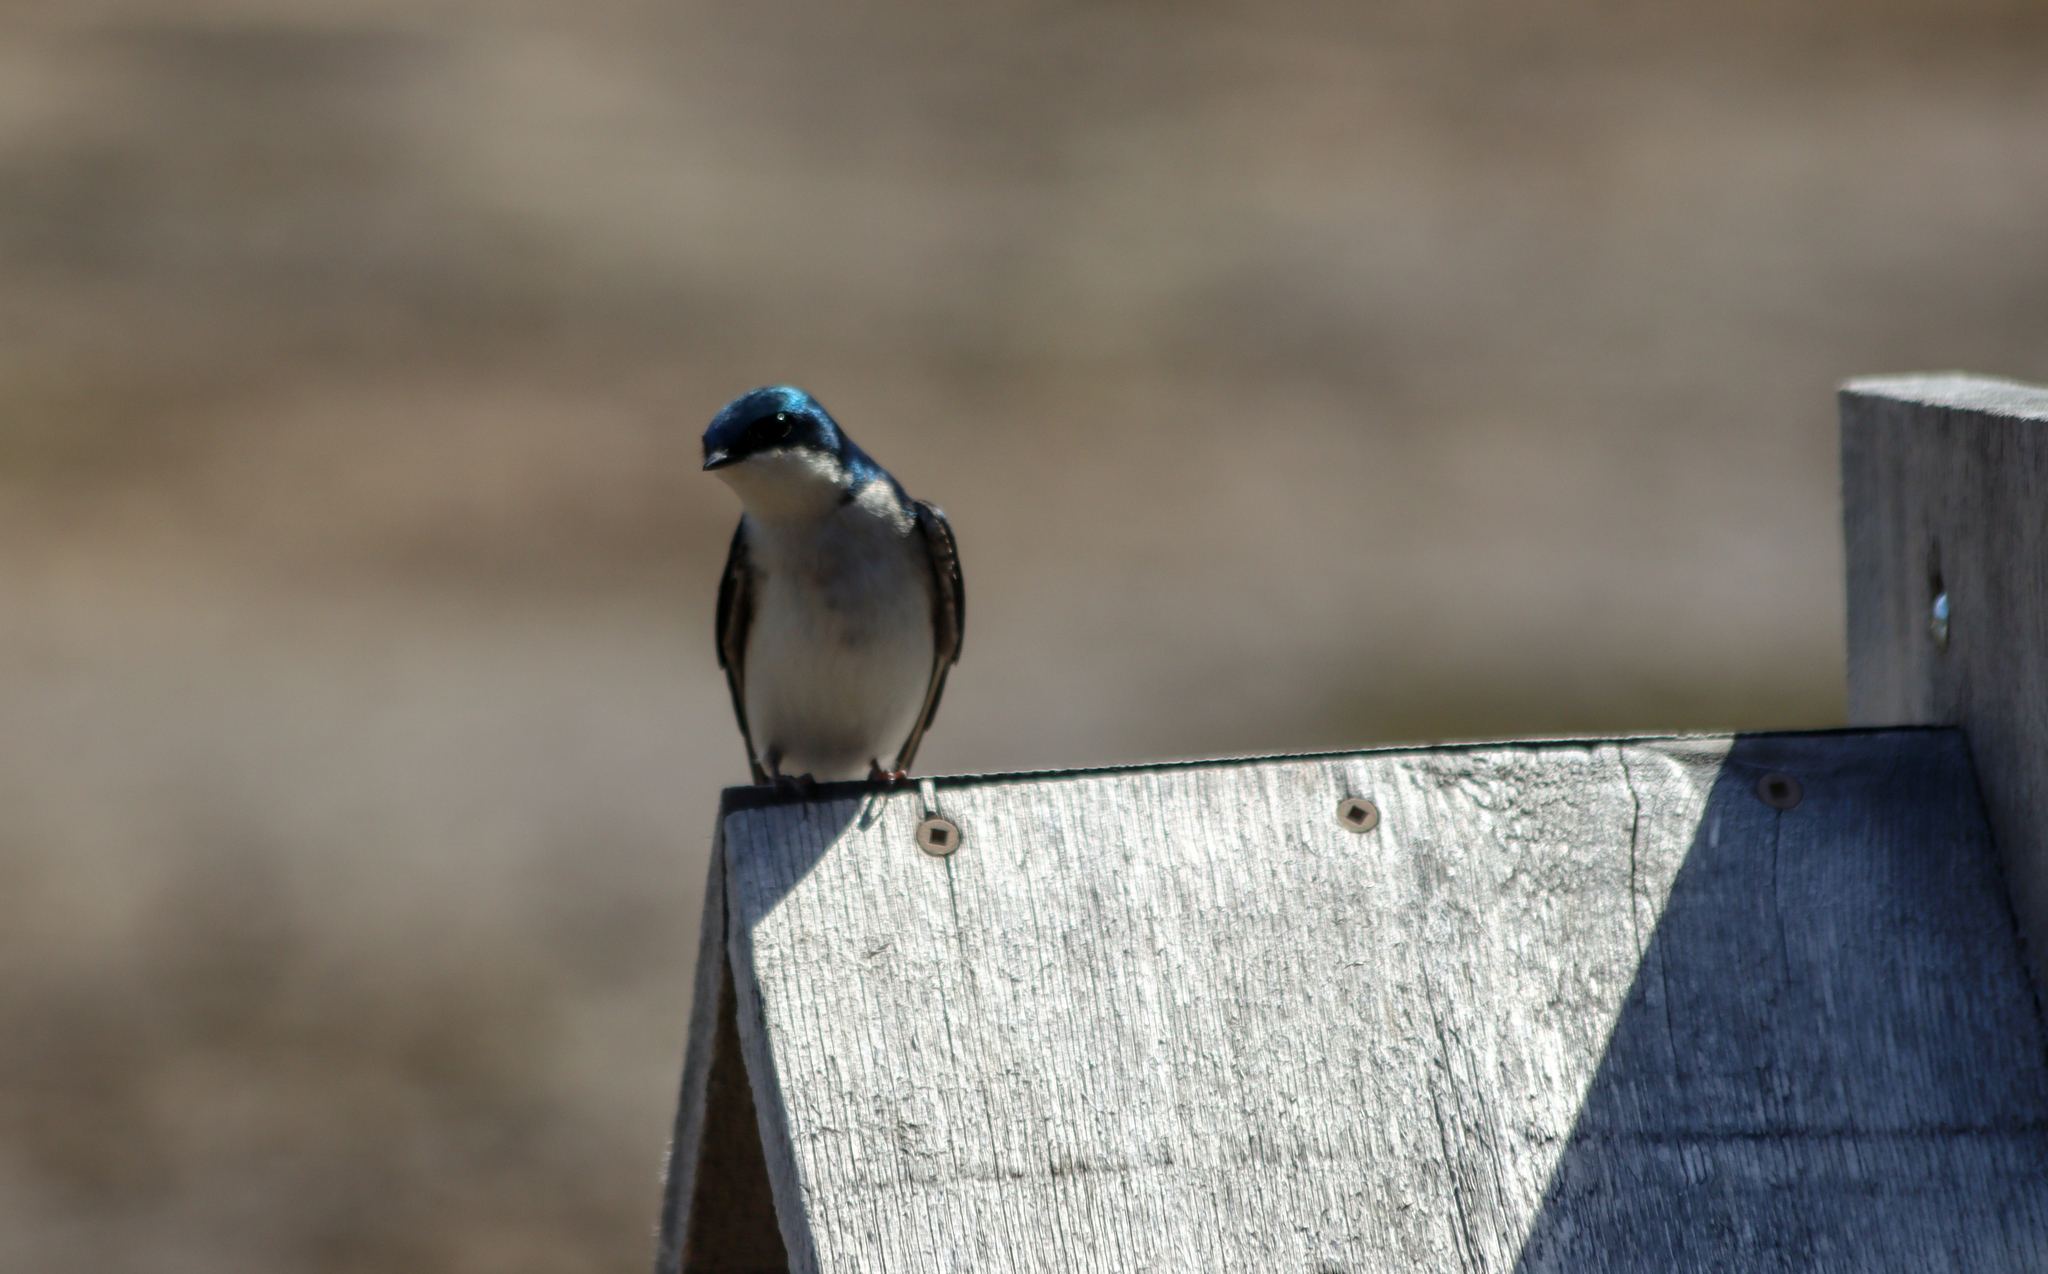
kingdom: Animalia
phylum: Chordata
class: Aves
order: Passeriformes
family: Hirundinidae
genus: Tachycineta
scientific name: Tachycineta bicolor
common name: Tree swallow
